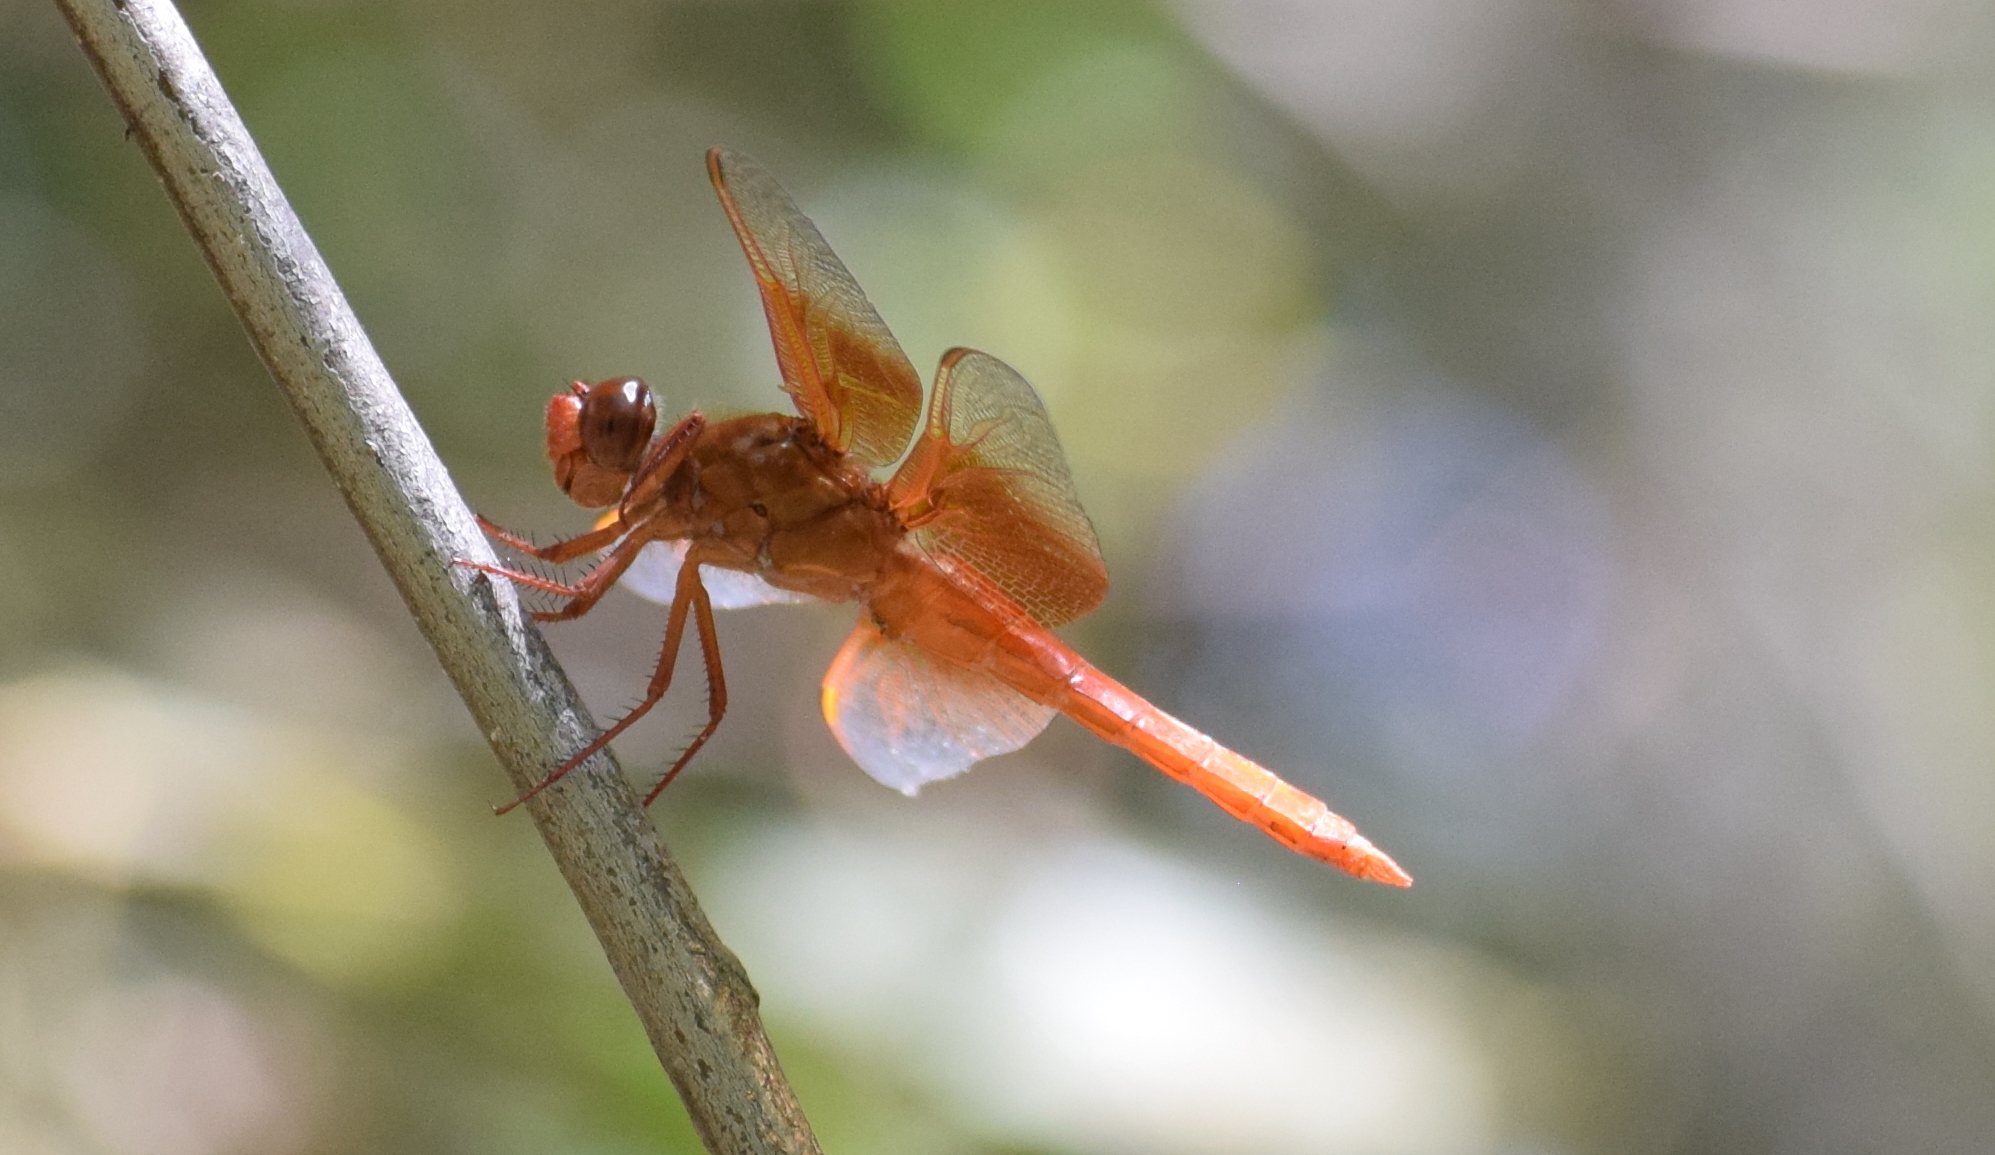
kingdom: Animalia
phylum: Arthropoda
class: Insecta
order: Odonata
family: Libellulidae
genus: Libellula
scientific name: Libellula saturata
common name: Flame skimmer
